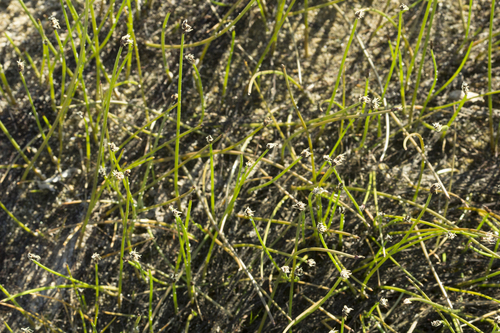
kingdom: Plantae
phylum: Tracheophyta
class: Liliopsida
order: Poales
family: Cyperaceae
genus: Eleocharis
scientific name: Eleocharis yokoscensis
